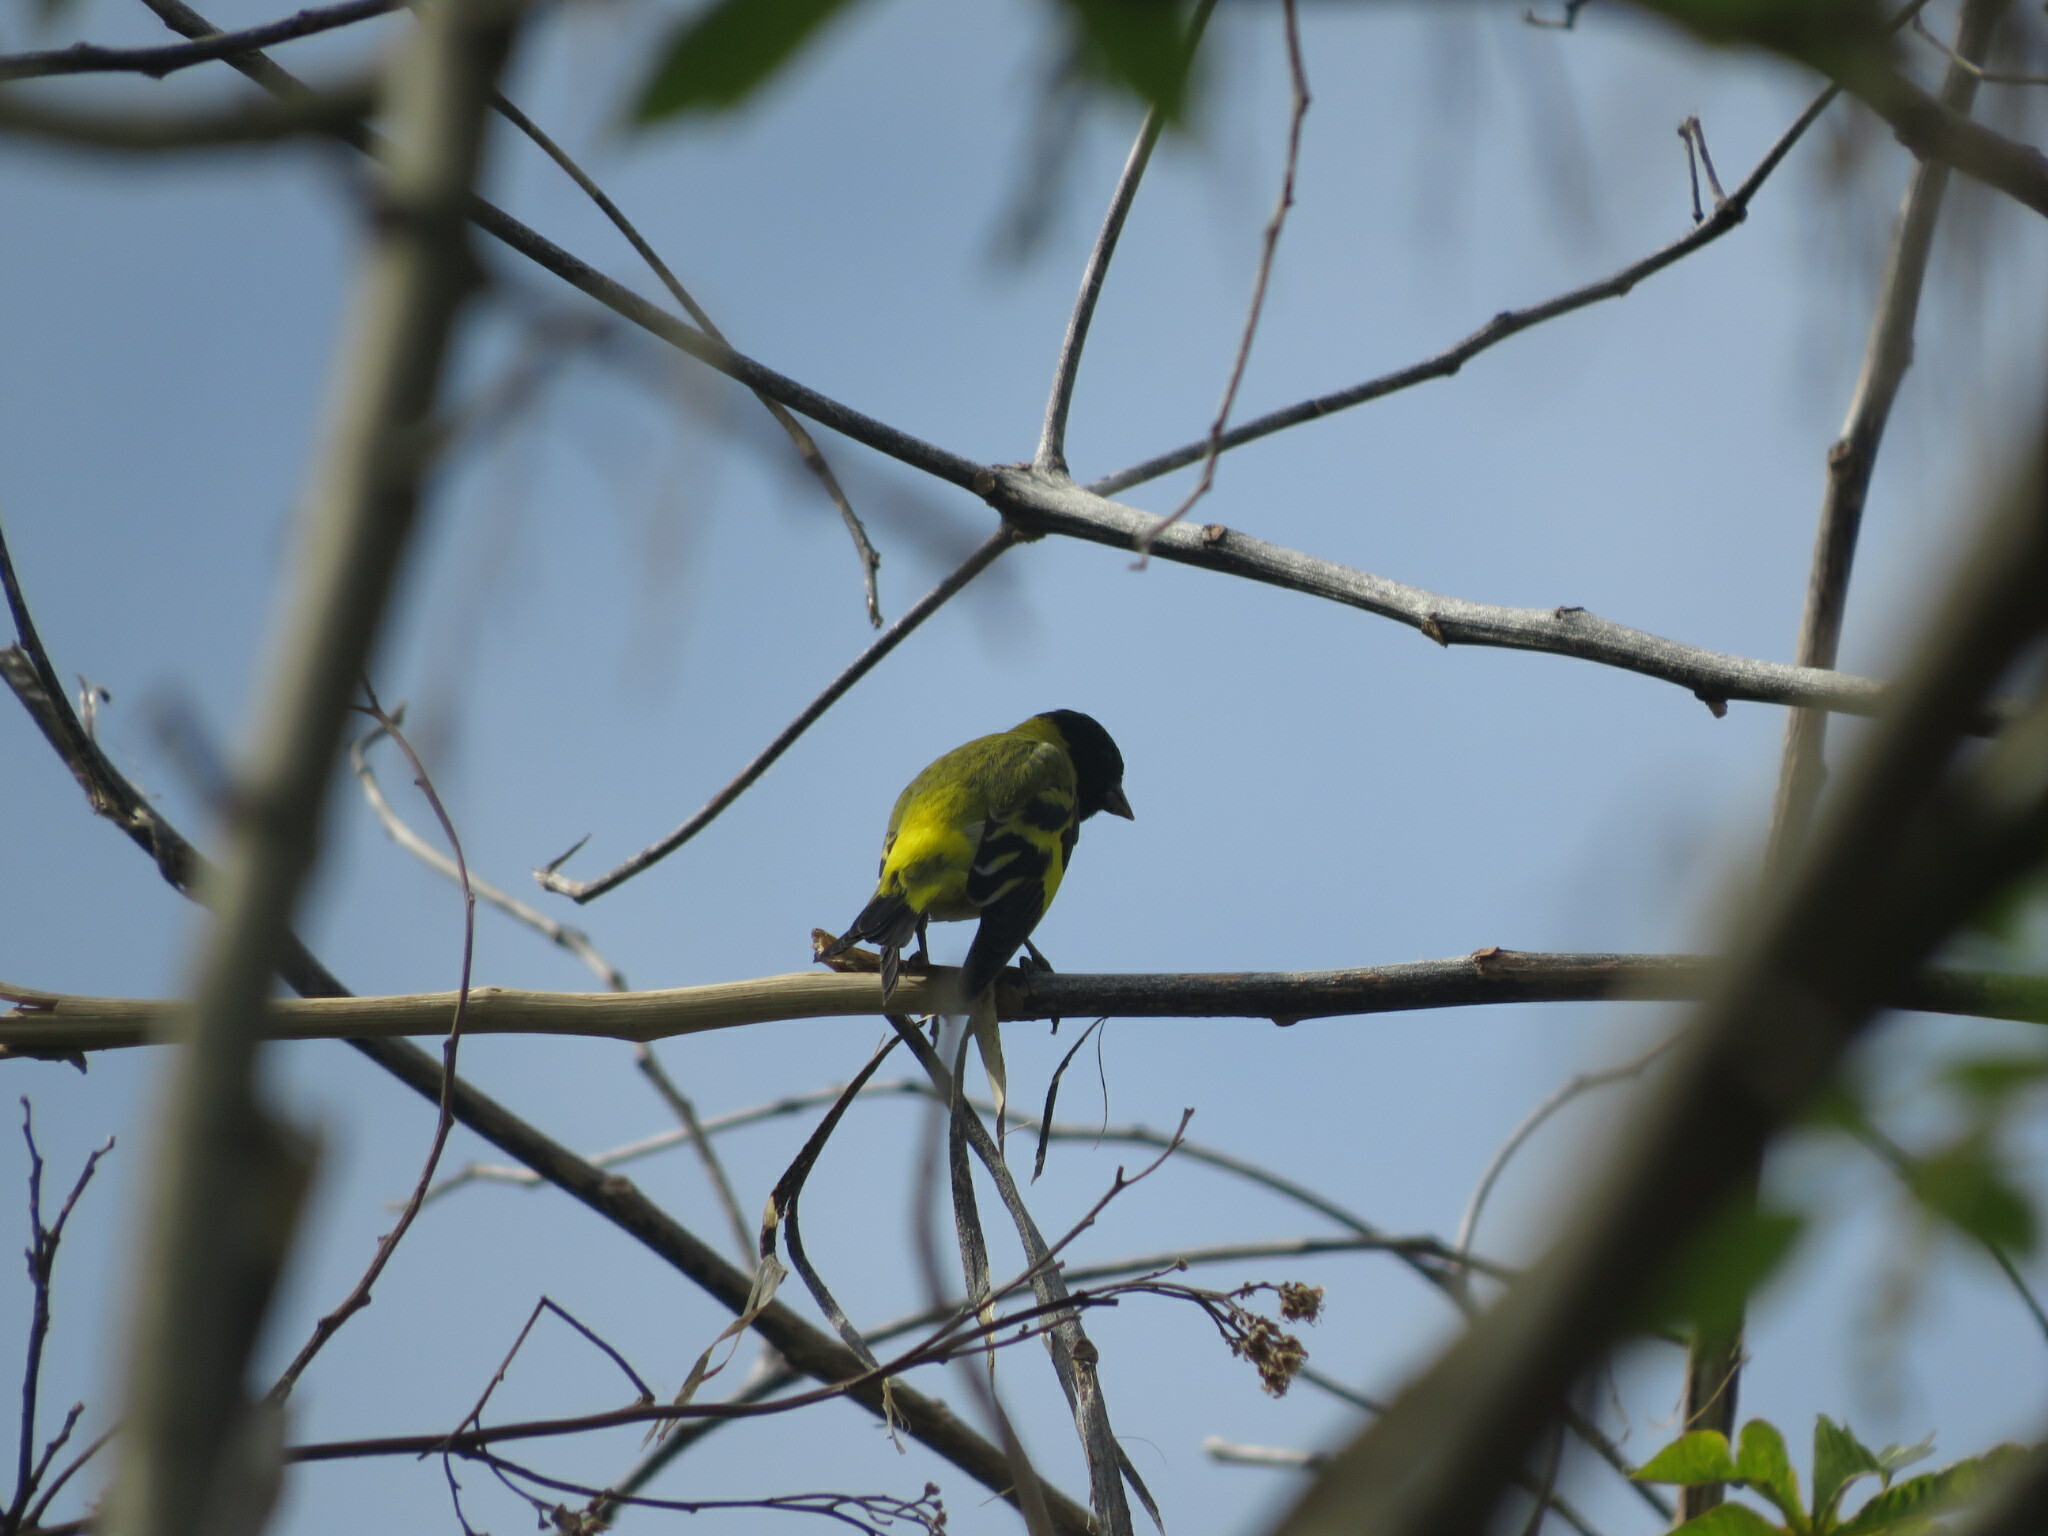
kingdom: Animalia
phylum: Chordata
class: Aves
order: Passeriformes
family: Fringillidae
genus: Spinus
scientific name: Spinus magellanicus
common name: Hooded siskin
